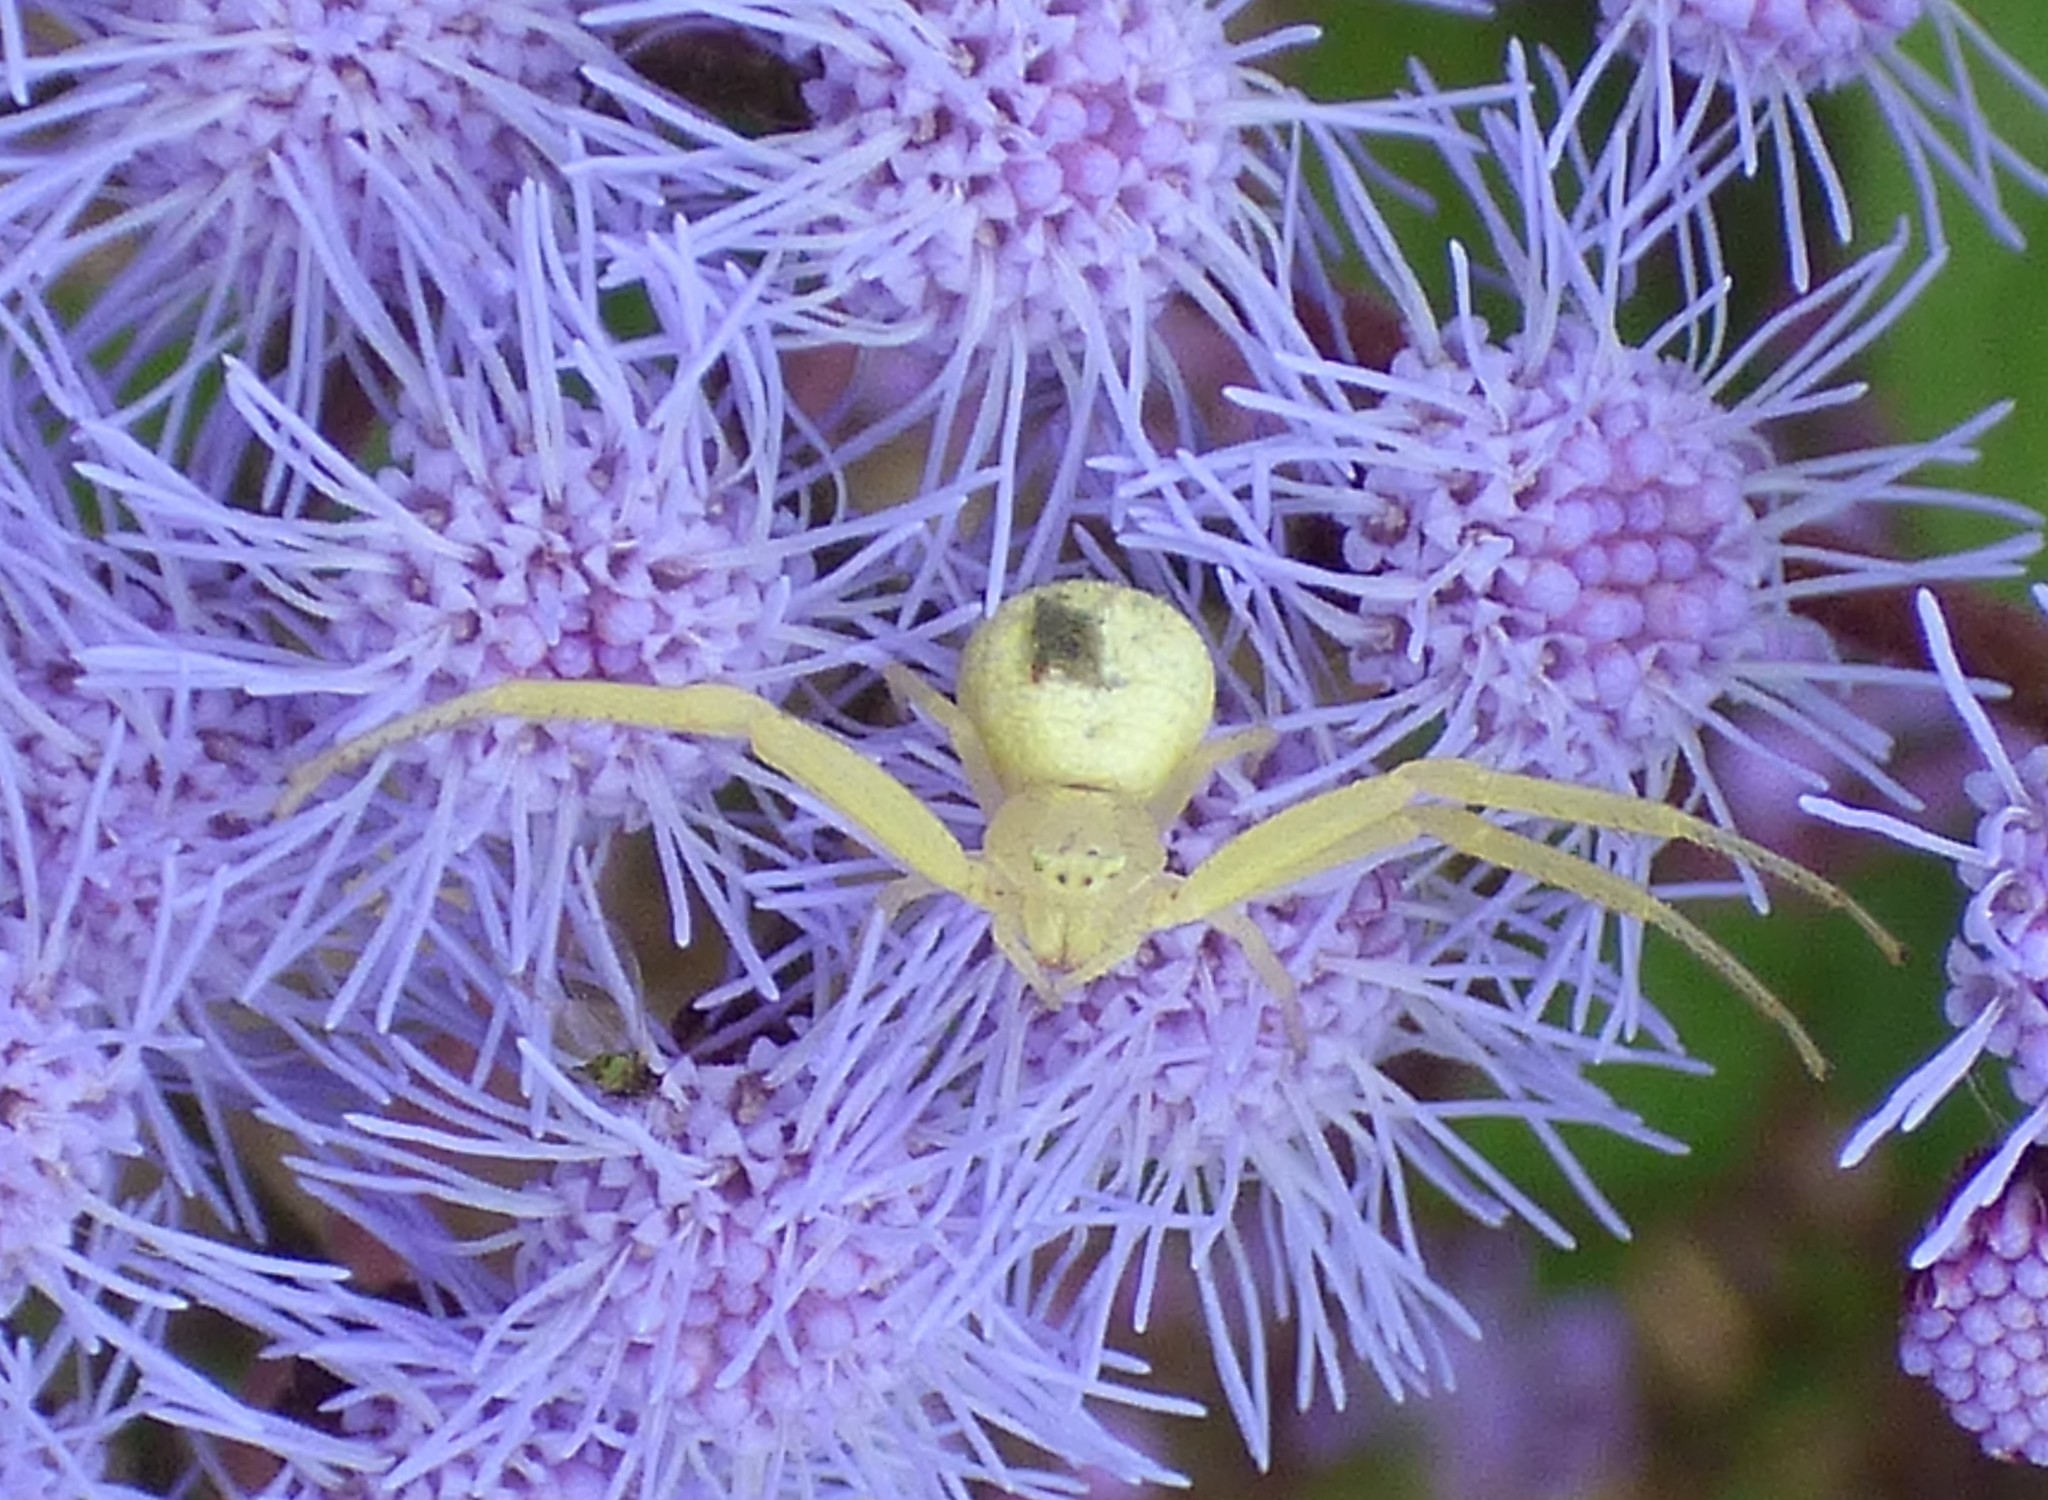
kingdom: Animalia
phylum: Arthropoda
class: Arachnida
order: Araneae
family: Thomisidae
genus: Misumessus
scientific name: Misumessus oblongus
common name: American green crab spider
